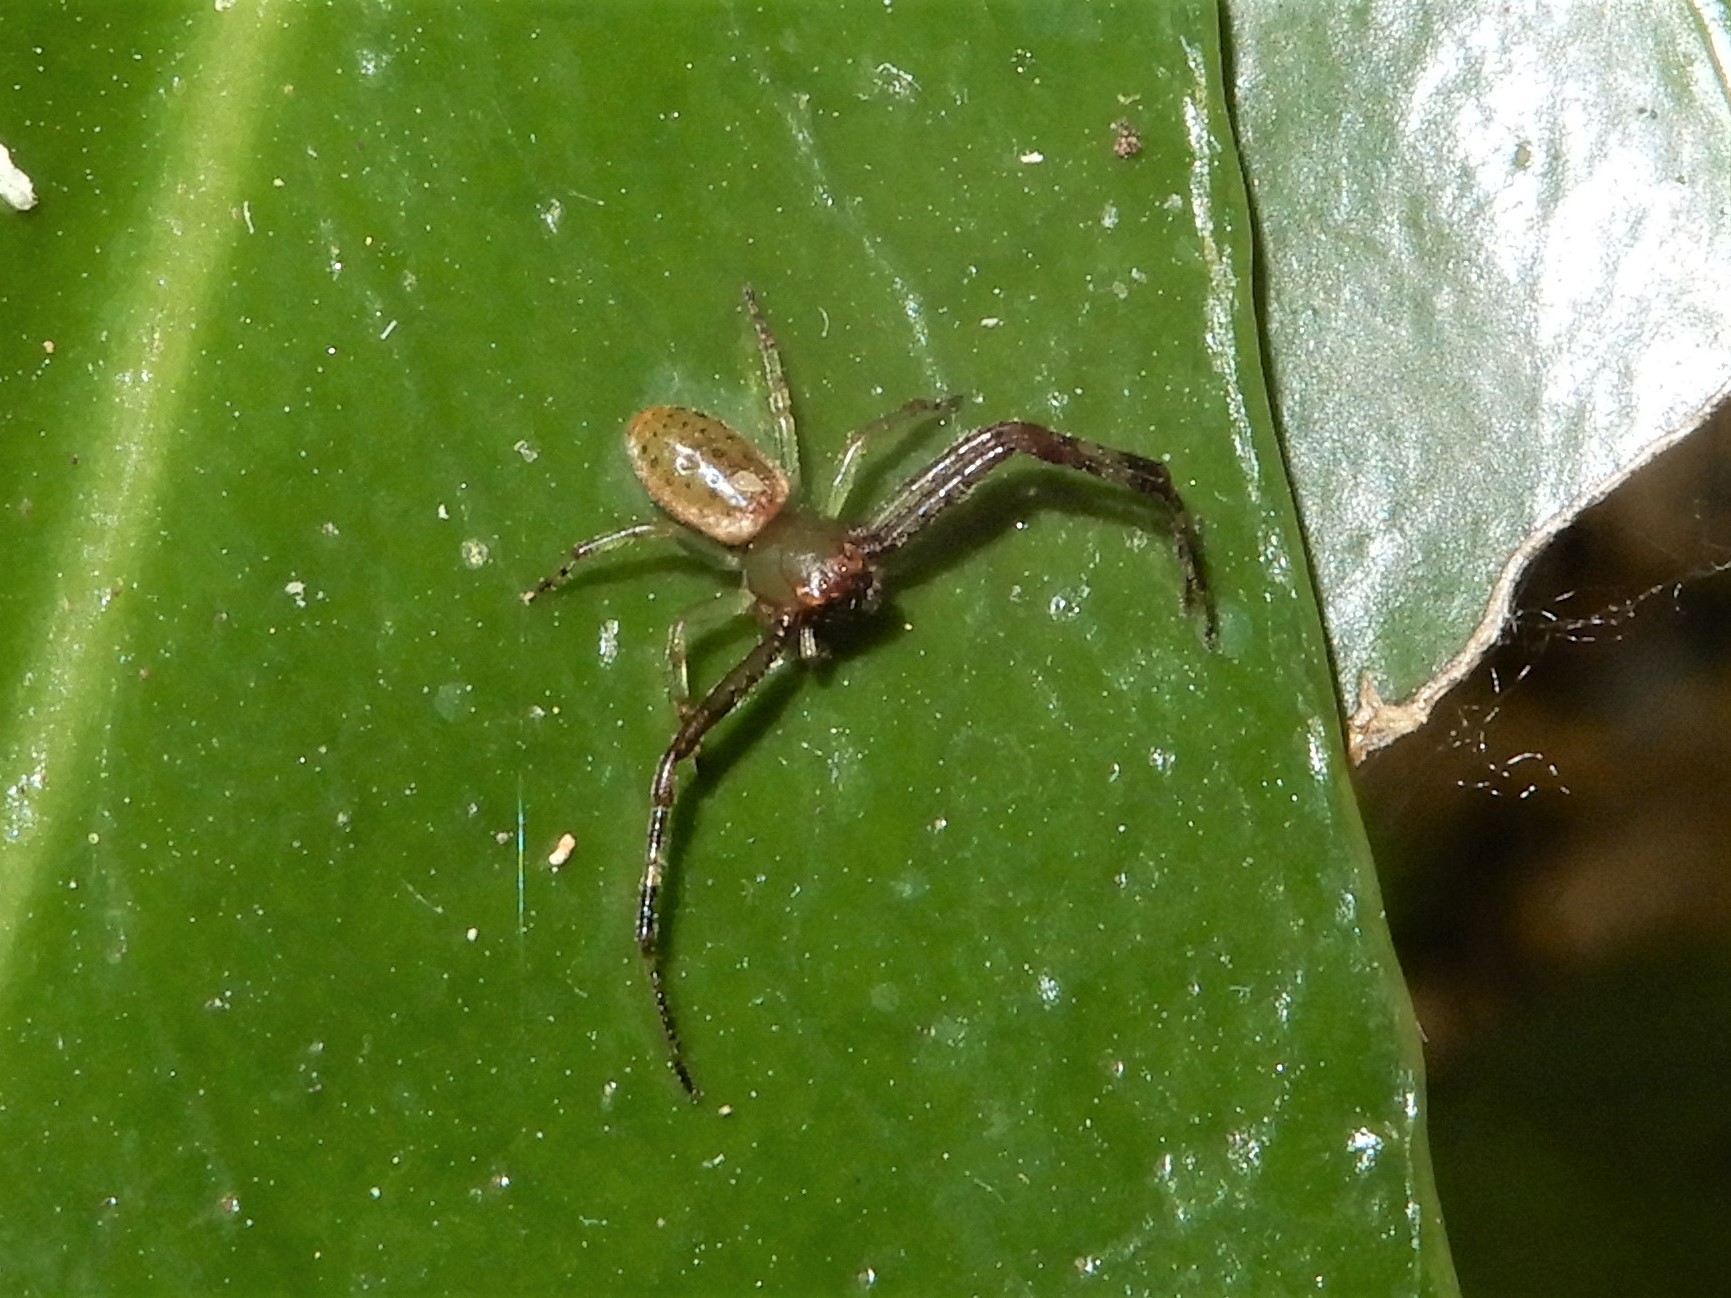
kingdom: Animalia
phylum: Arthropoda
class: Arachnida
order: Araneae
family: Thomisidae
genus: Diaea
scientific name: Diaea ambara
